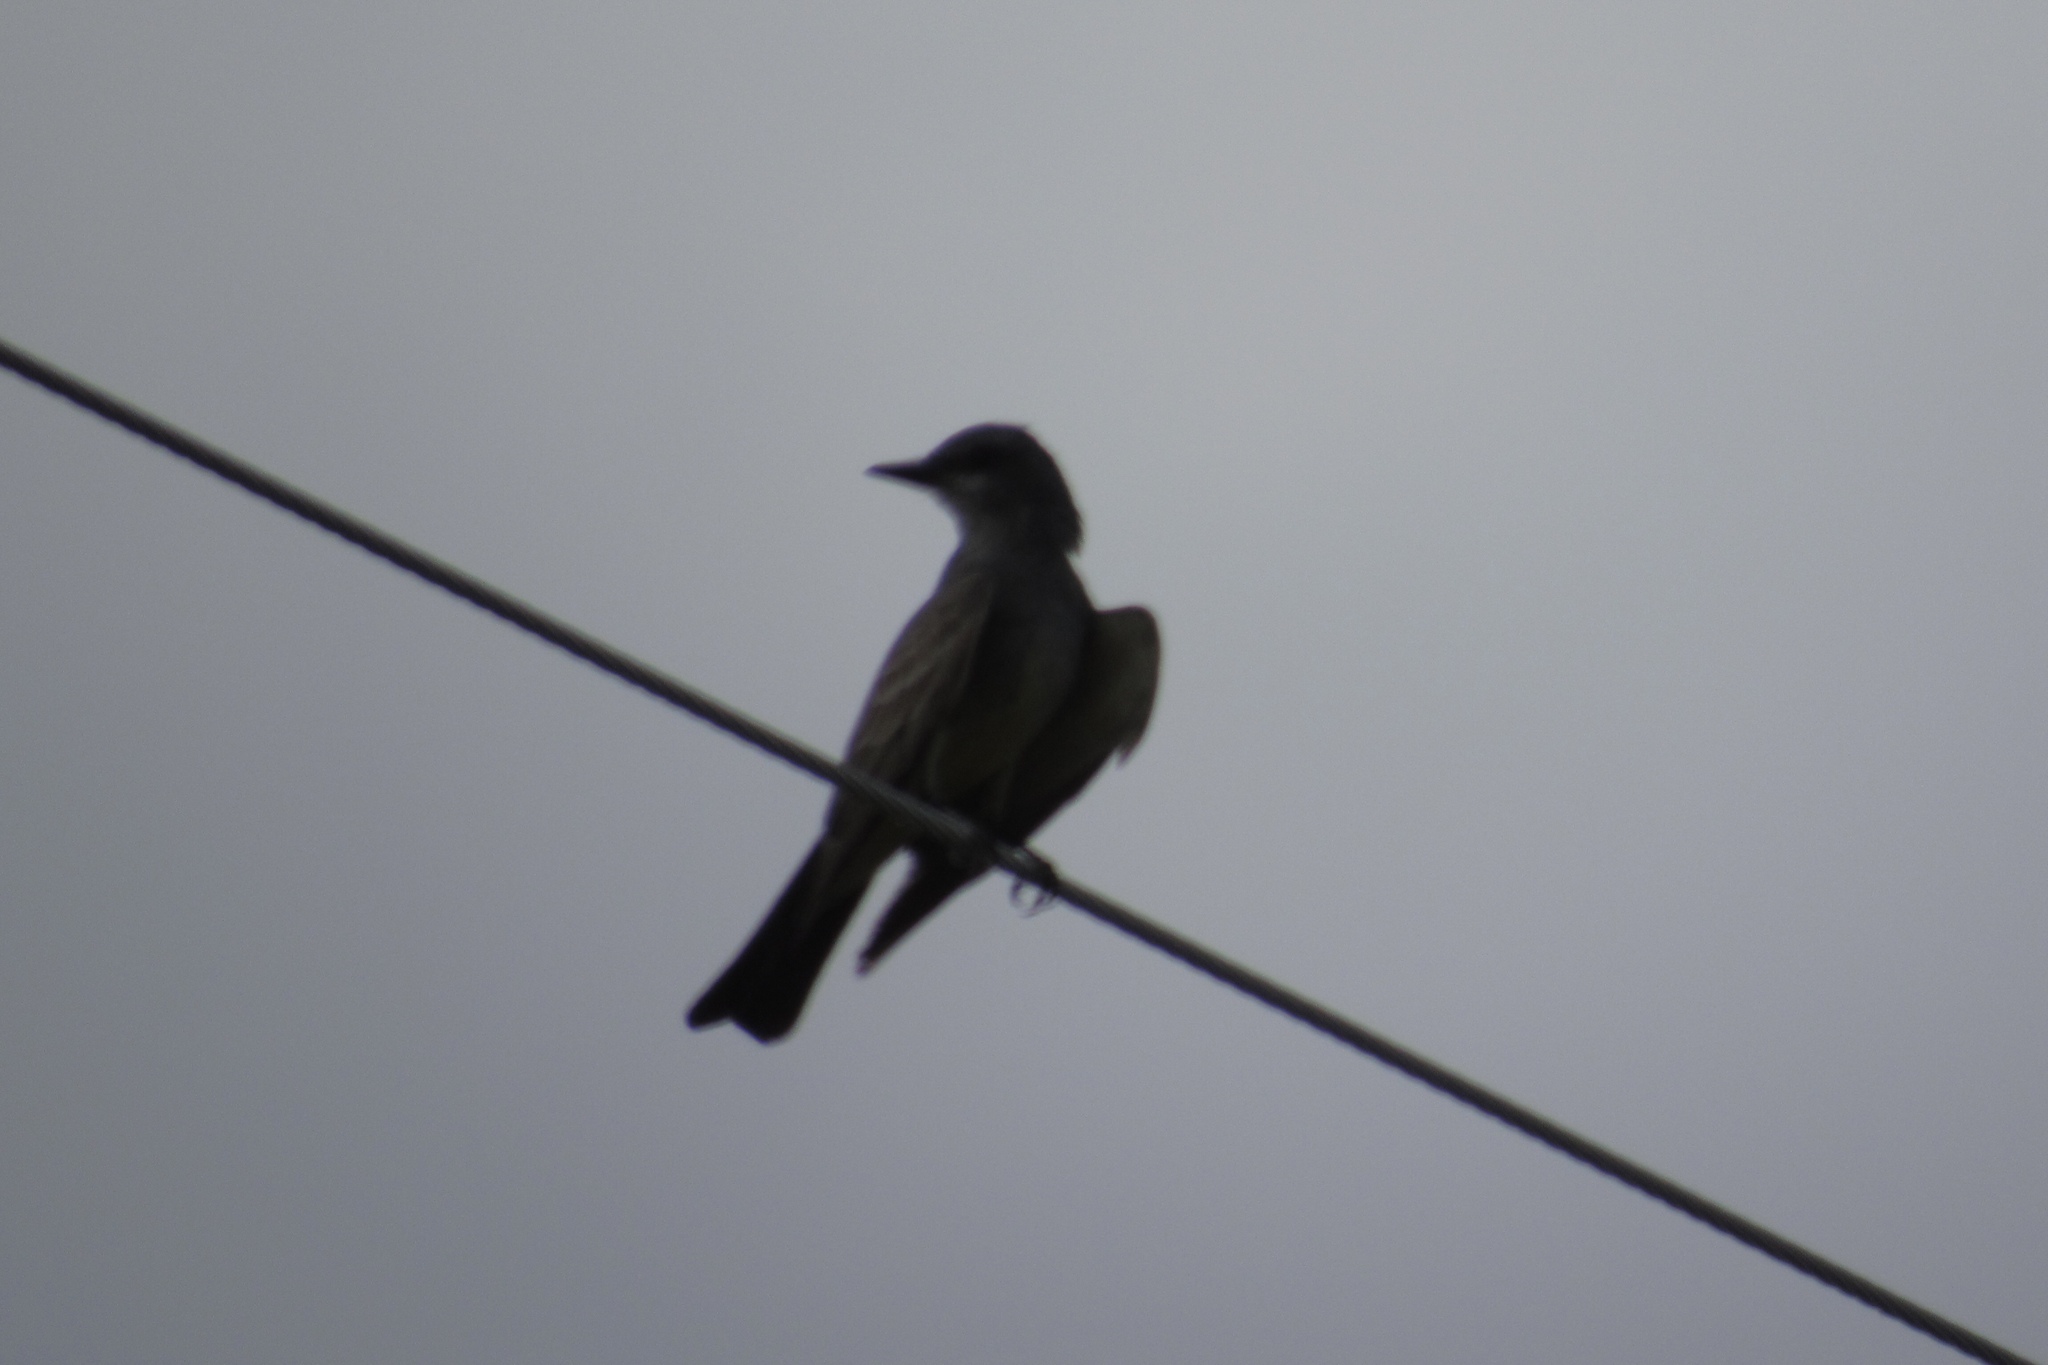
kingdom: Animalia
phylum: Chordata
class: Aves
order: Passeriformes
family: Tyrannidae
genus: Tyrannus
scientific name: Tyrannus vociferans
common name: Cassin's kingbird
